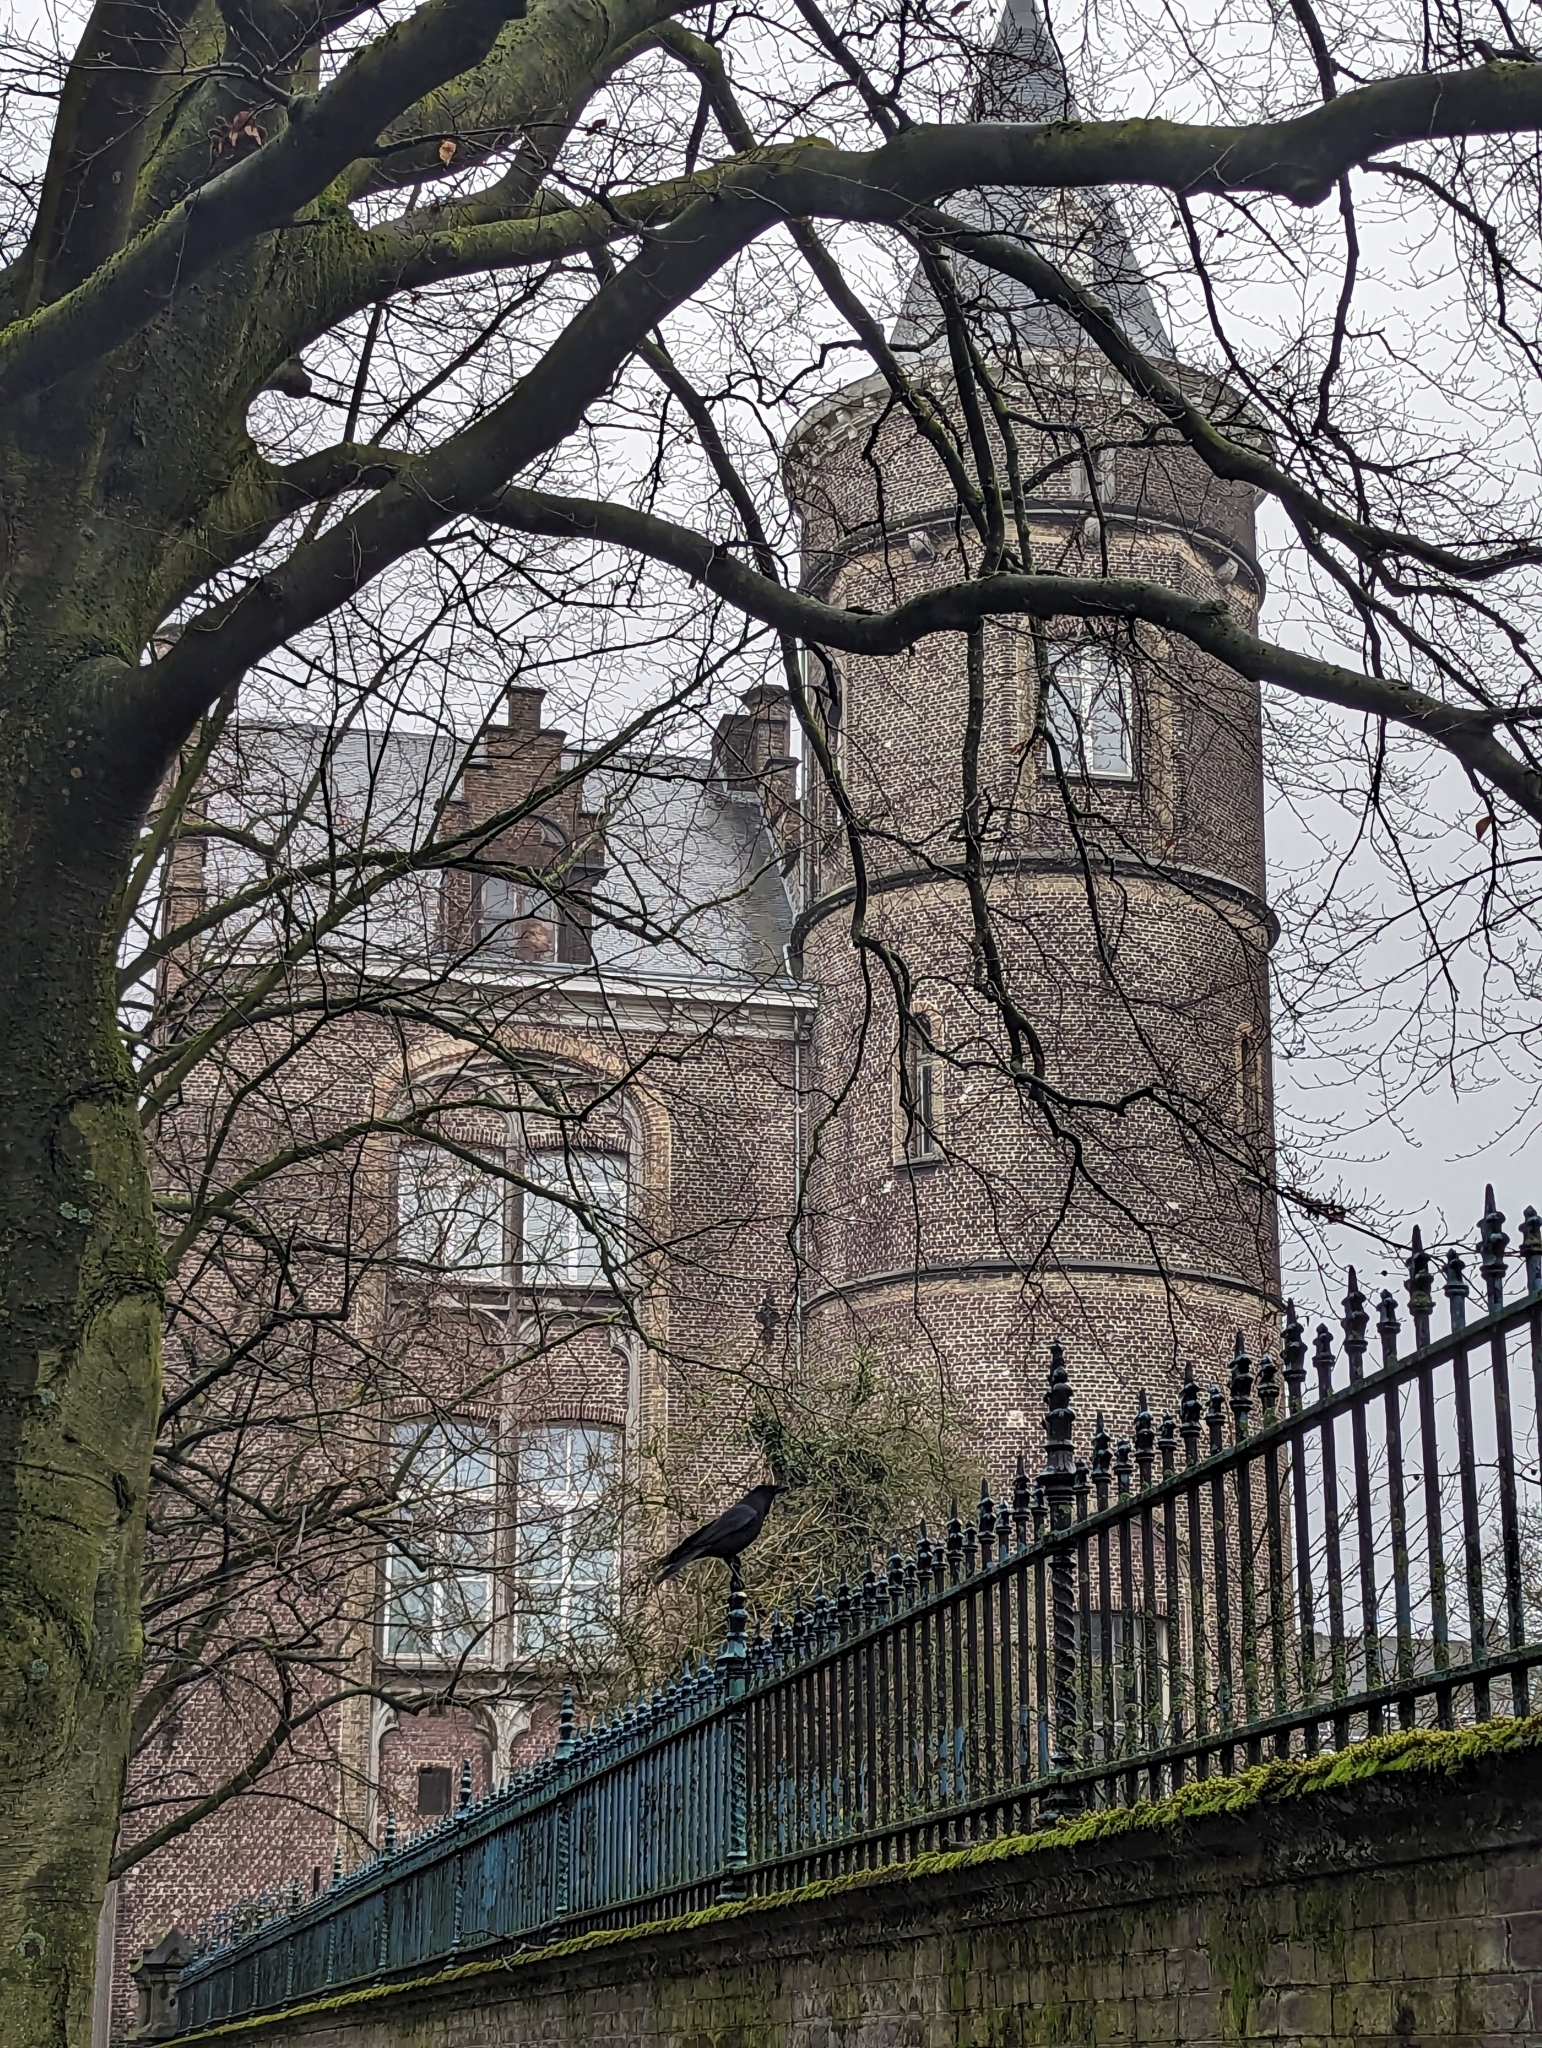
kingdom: Animalia
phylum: Chordata
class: Aves
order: Passeriformes
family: Corvidae
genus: Corvus
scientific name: Corvus corone
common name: Carrion crow
